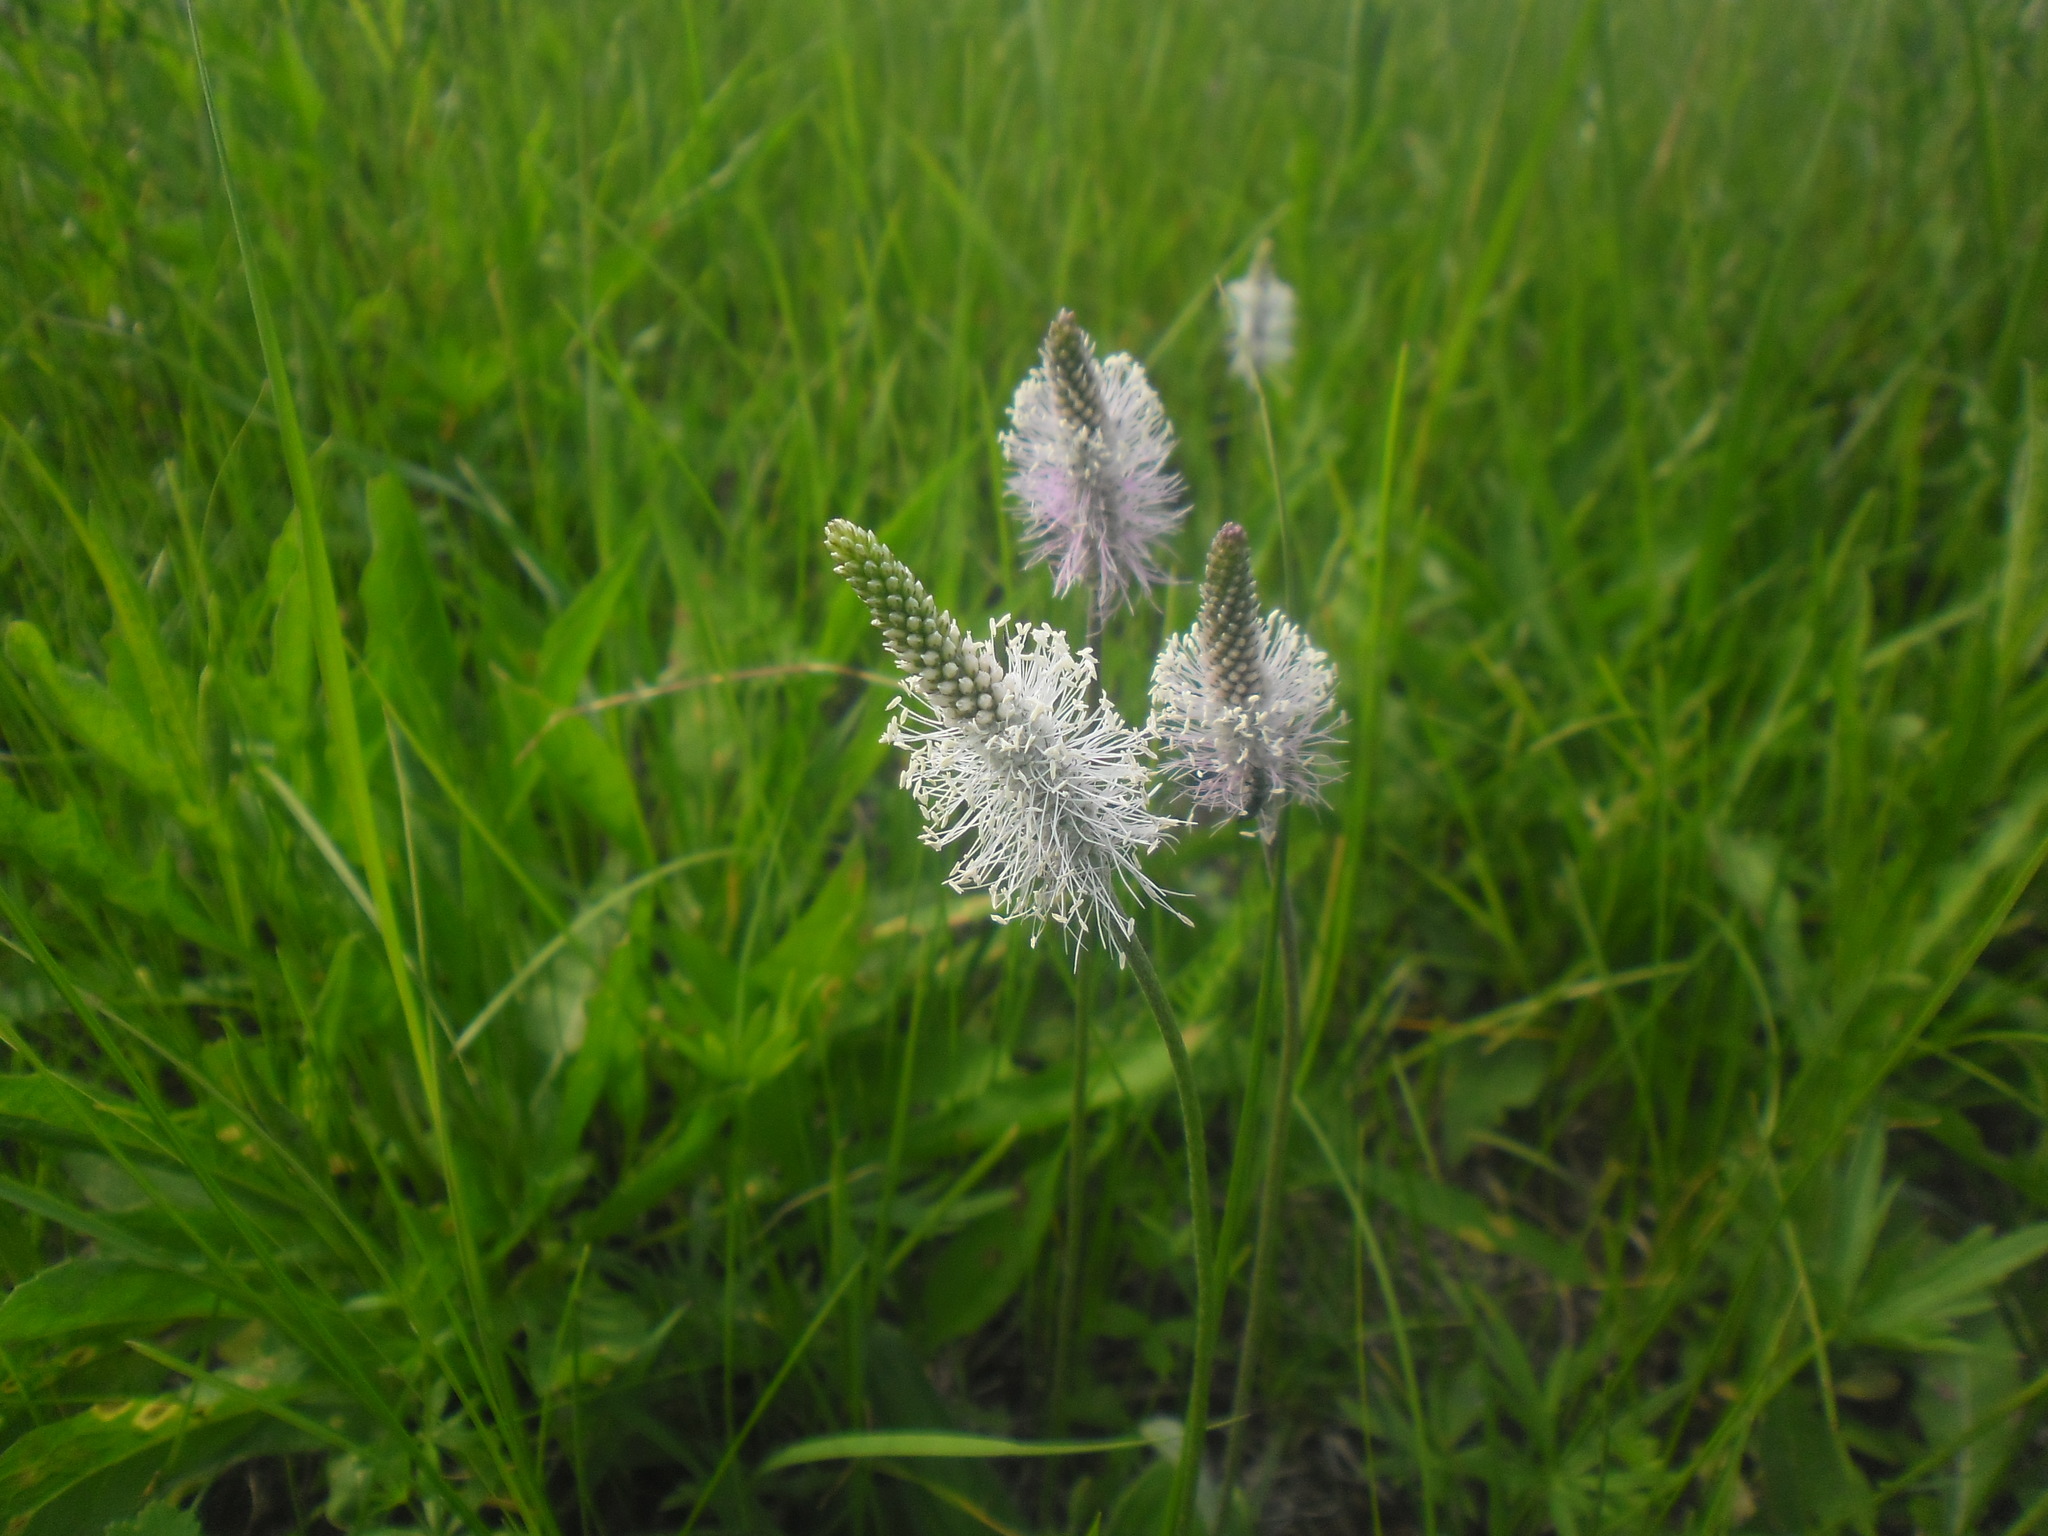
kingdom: Plantae
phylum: Tracheophyta
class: Magnoliopsida
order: Lamiales
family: Plantaginaceae
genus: Plantago
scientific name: Plantago media
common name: Hoary plantain
